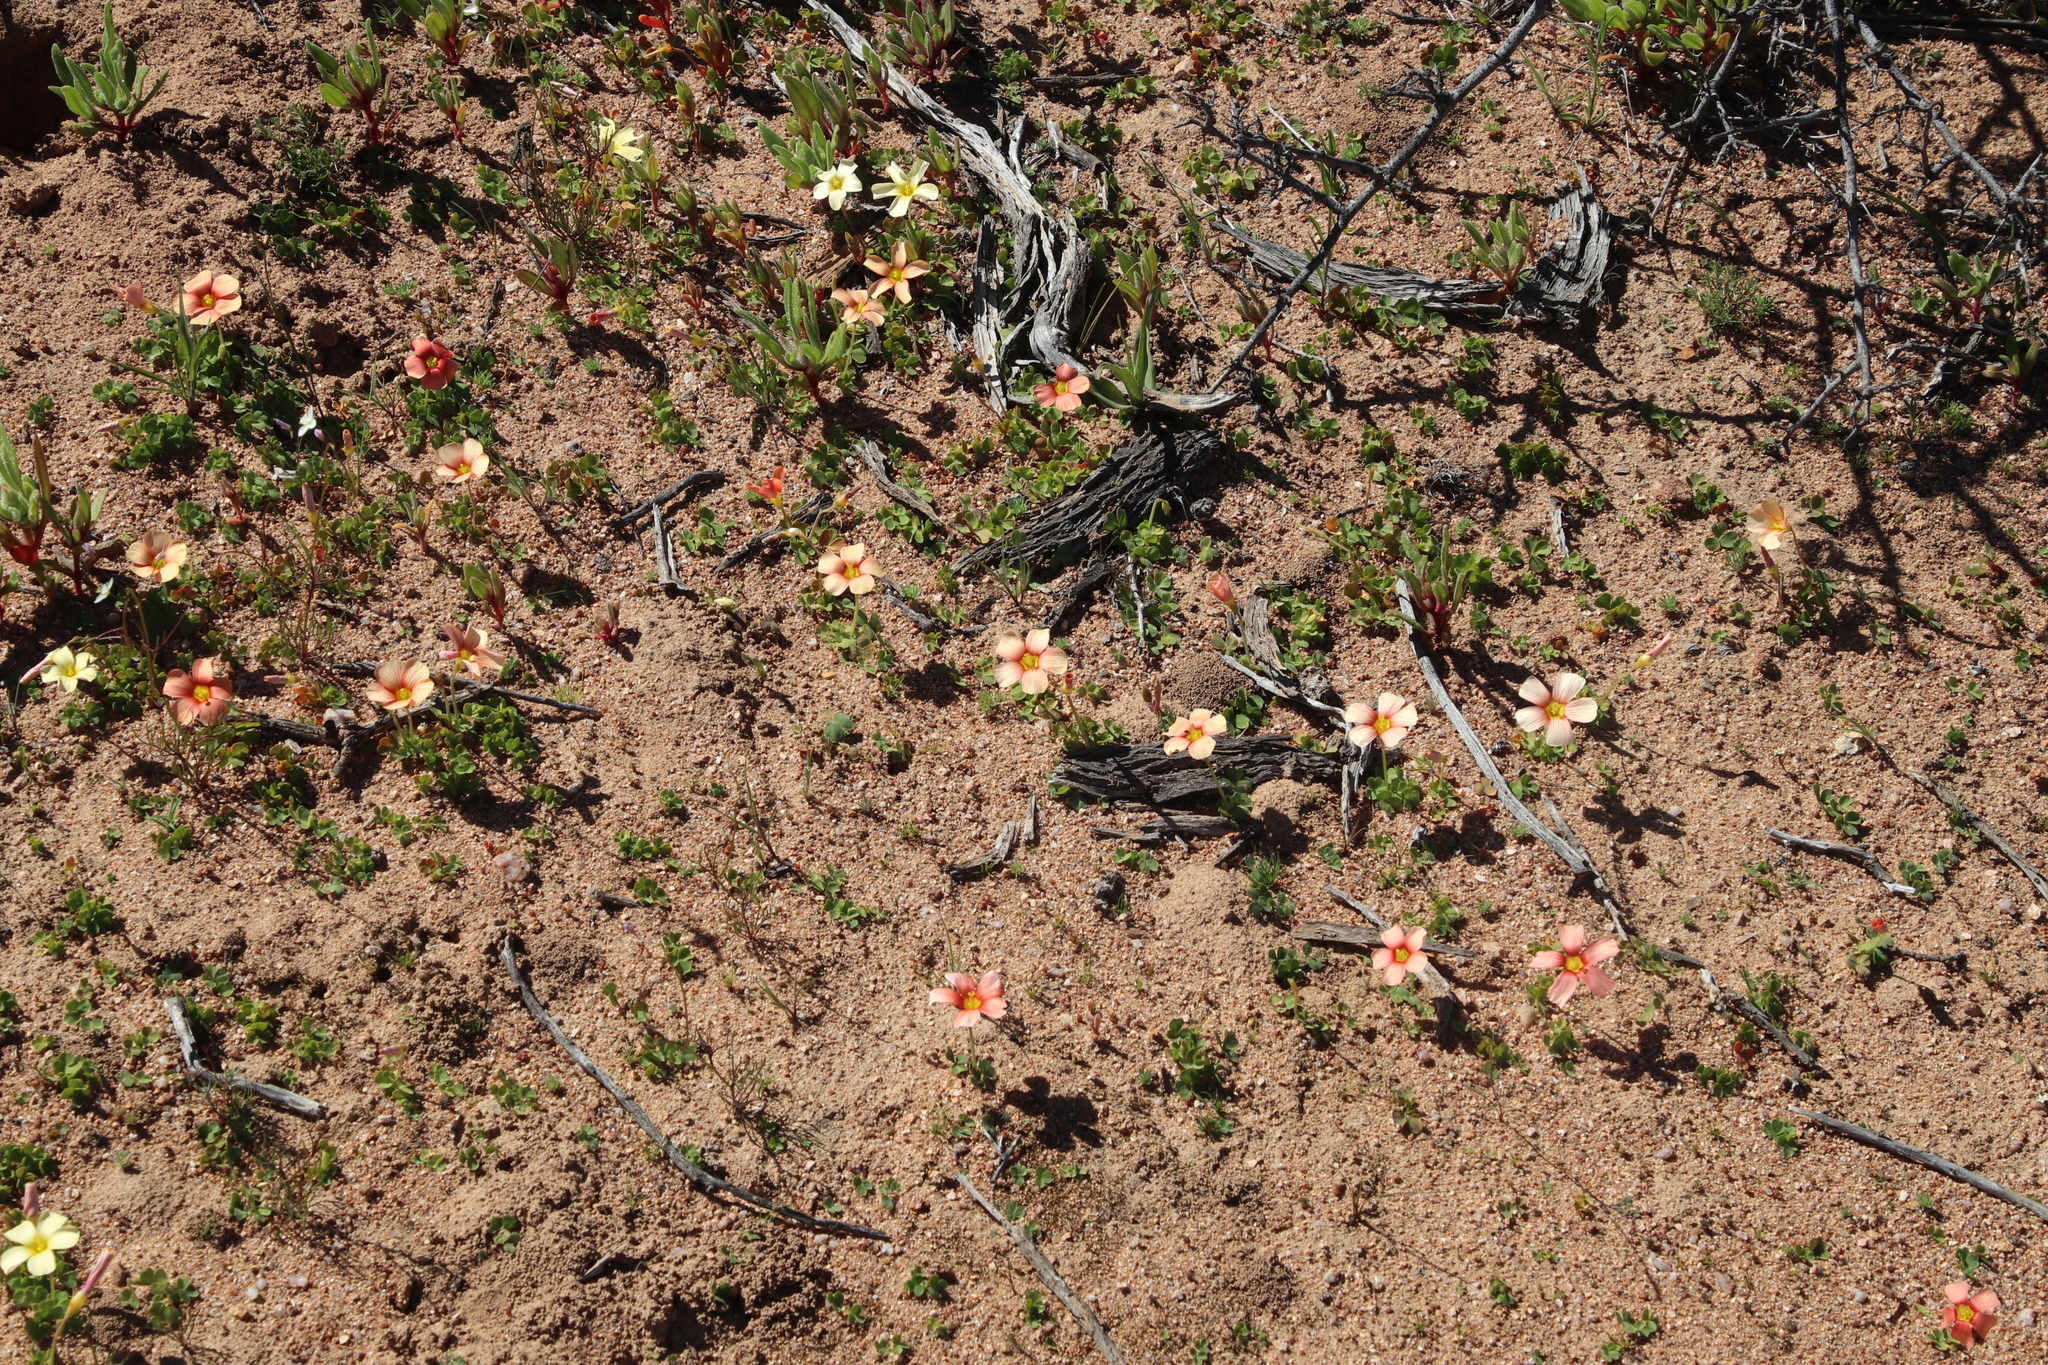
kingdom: Plantae
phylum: Tracheophyta
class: Magnoliopsida
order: Oxalidales
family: Oxalidaceae
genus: Oxalis
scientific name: Oxalis obtusa
